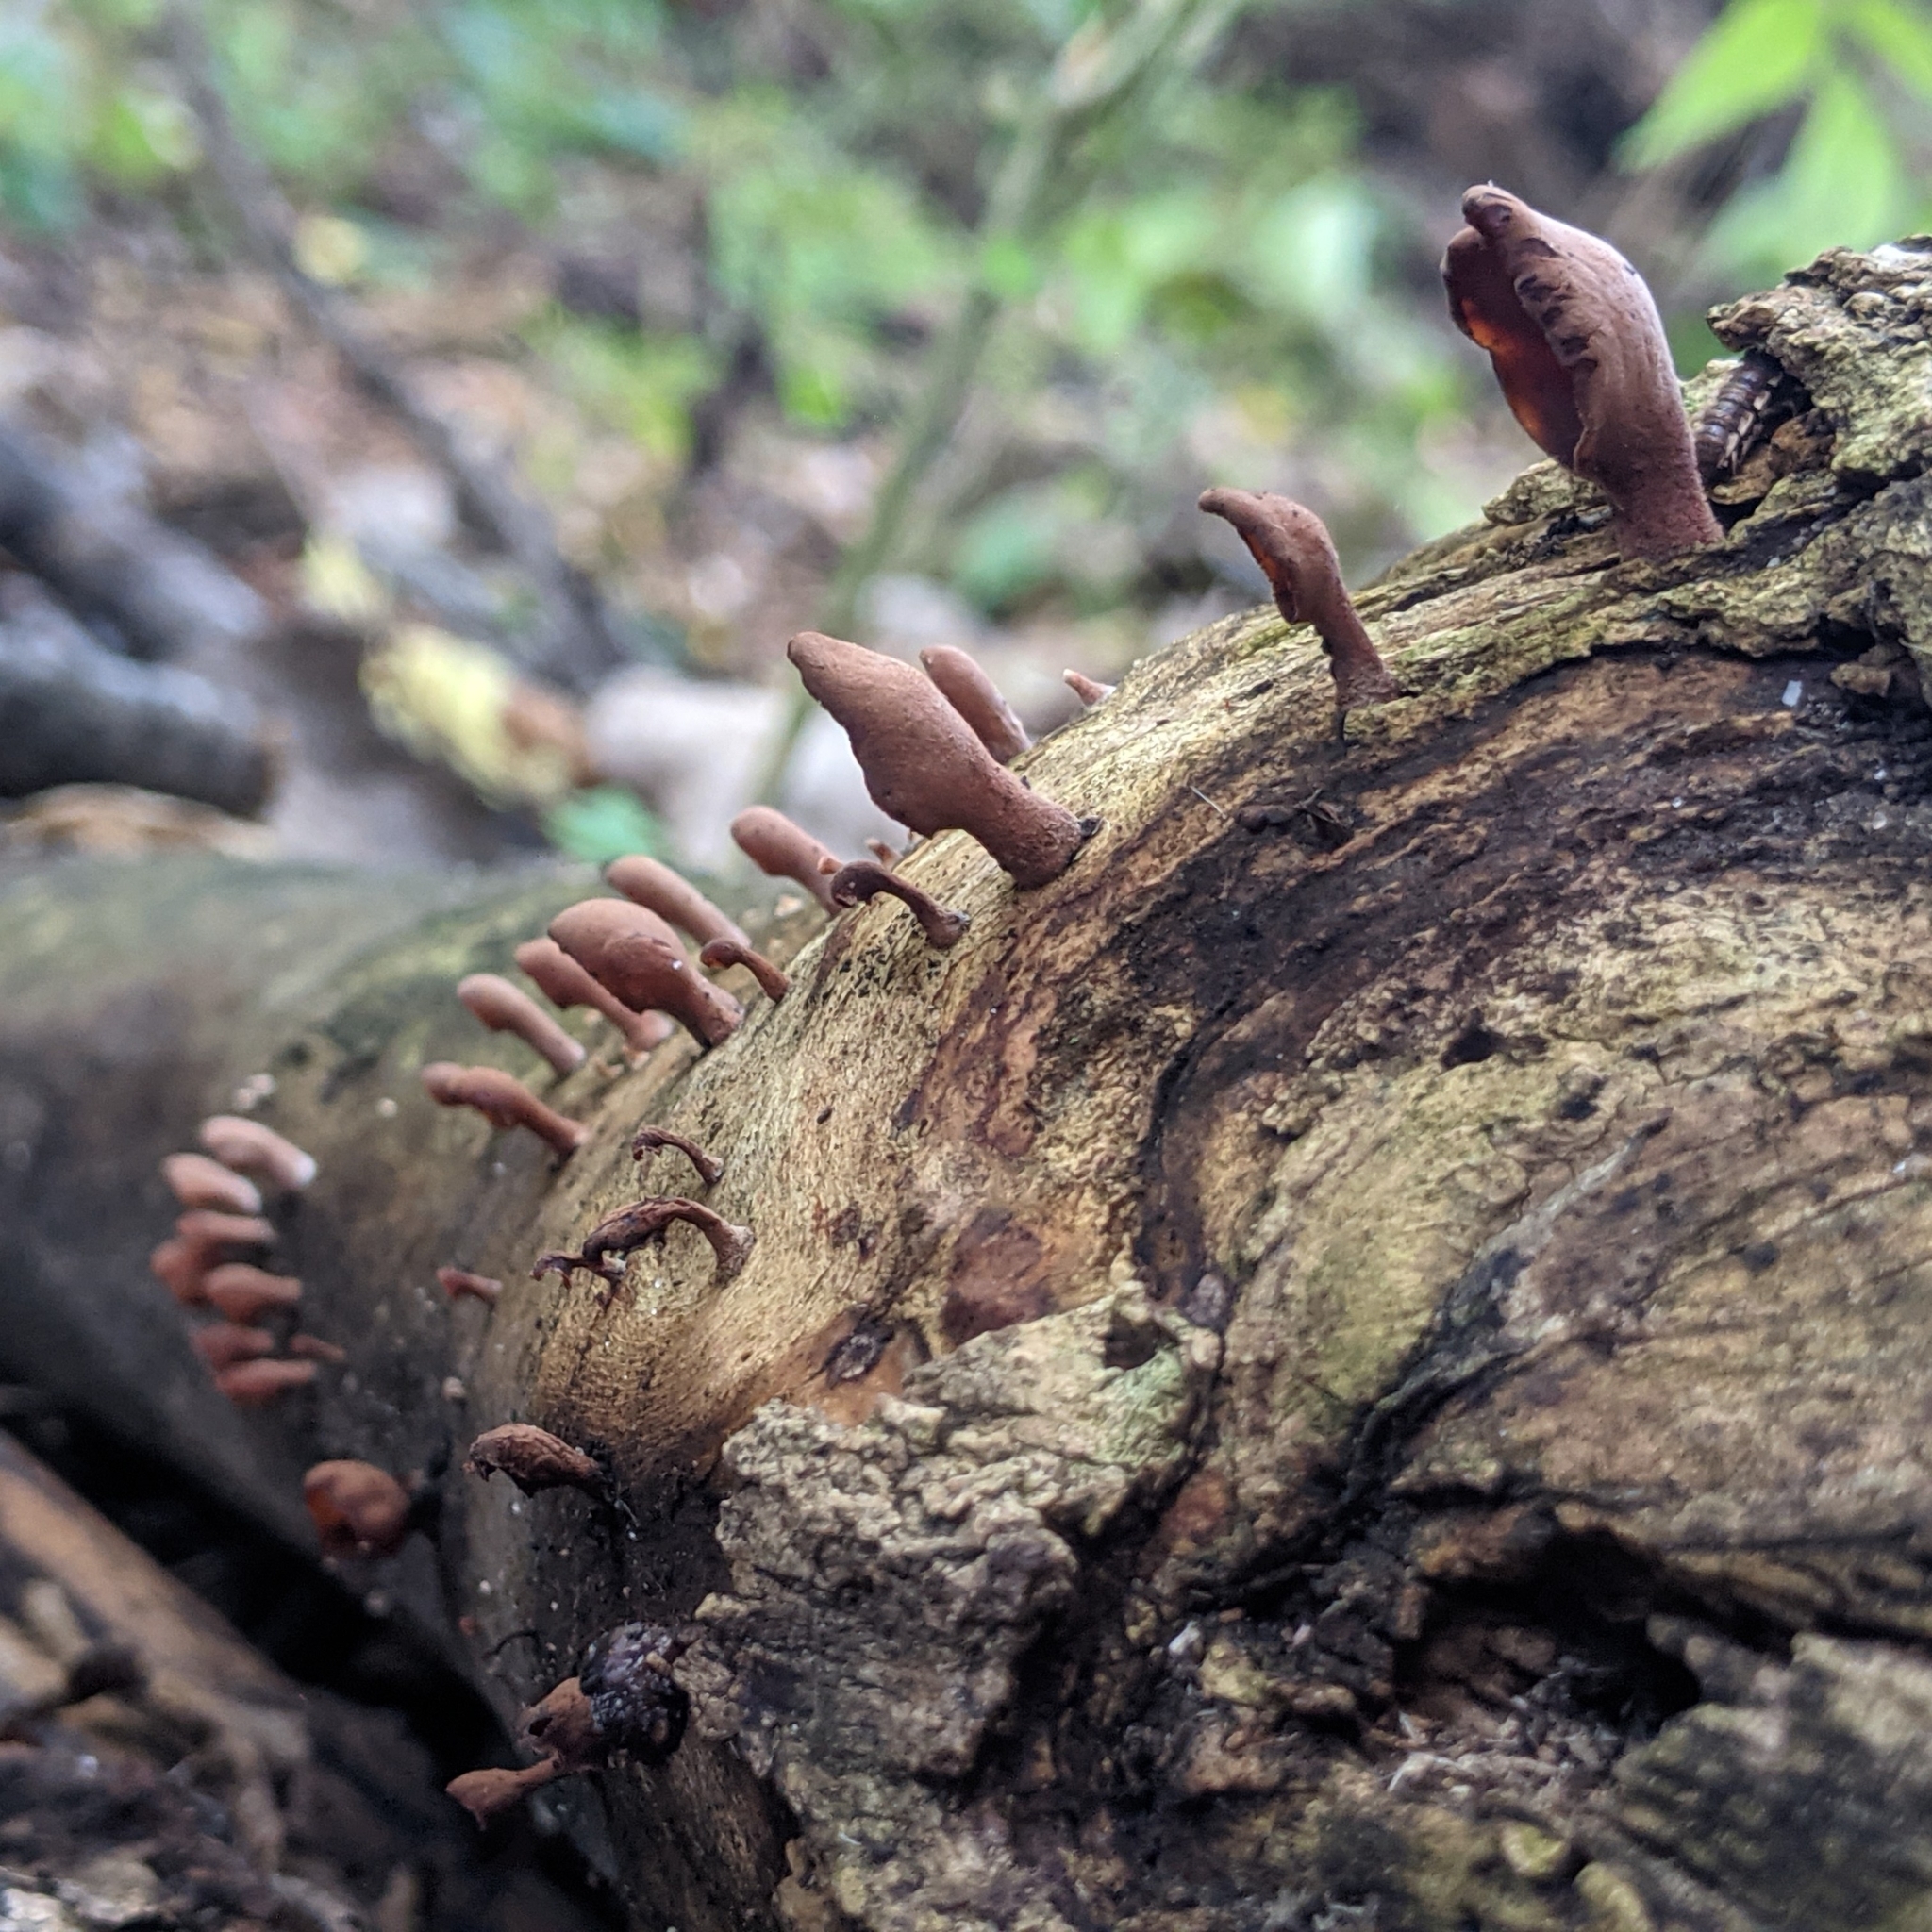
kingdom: Fungi
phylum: Basidiomycota
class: Dacrymycetes
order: Dacrymycetales
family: Dacrymycetaceae
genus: Dacryopinax
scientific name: Dacryopinax elegans
